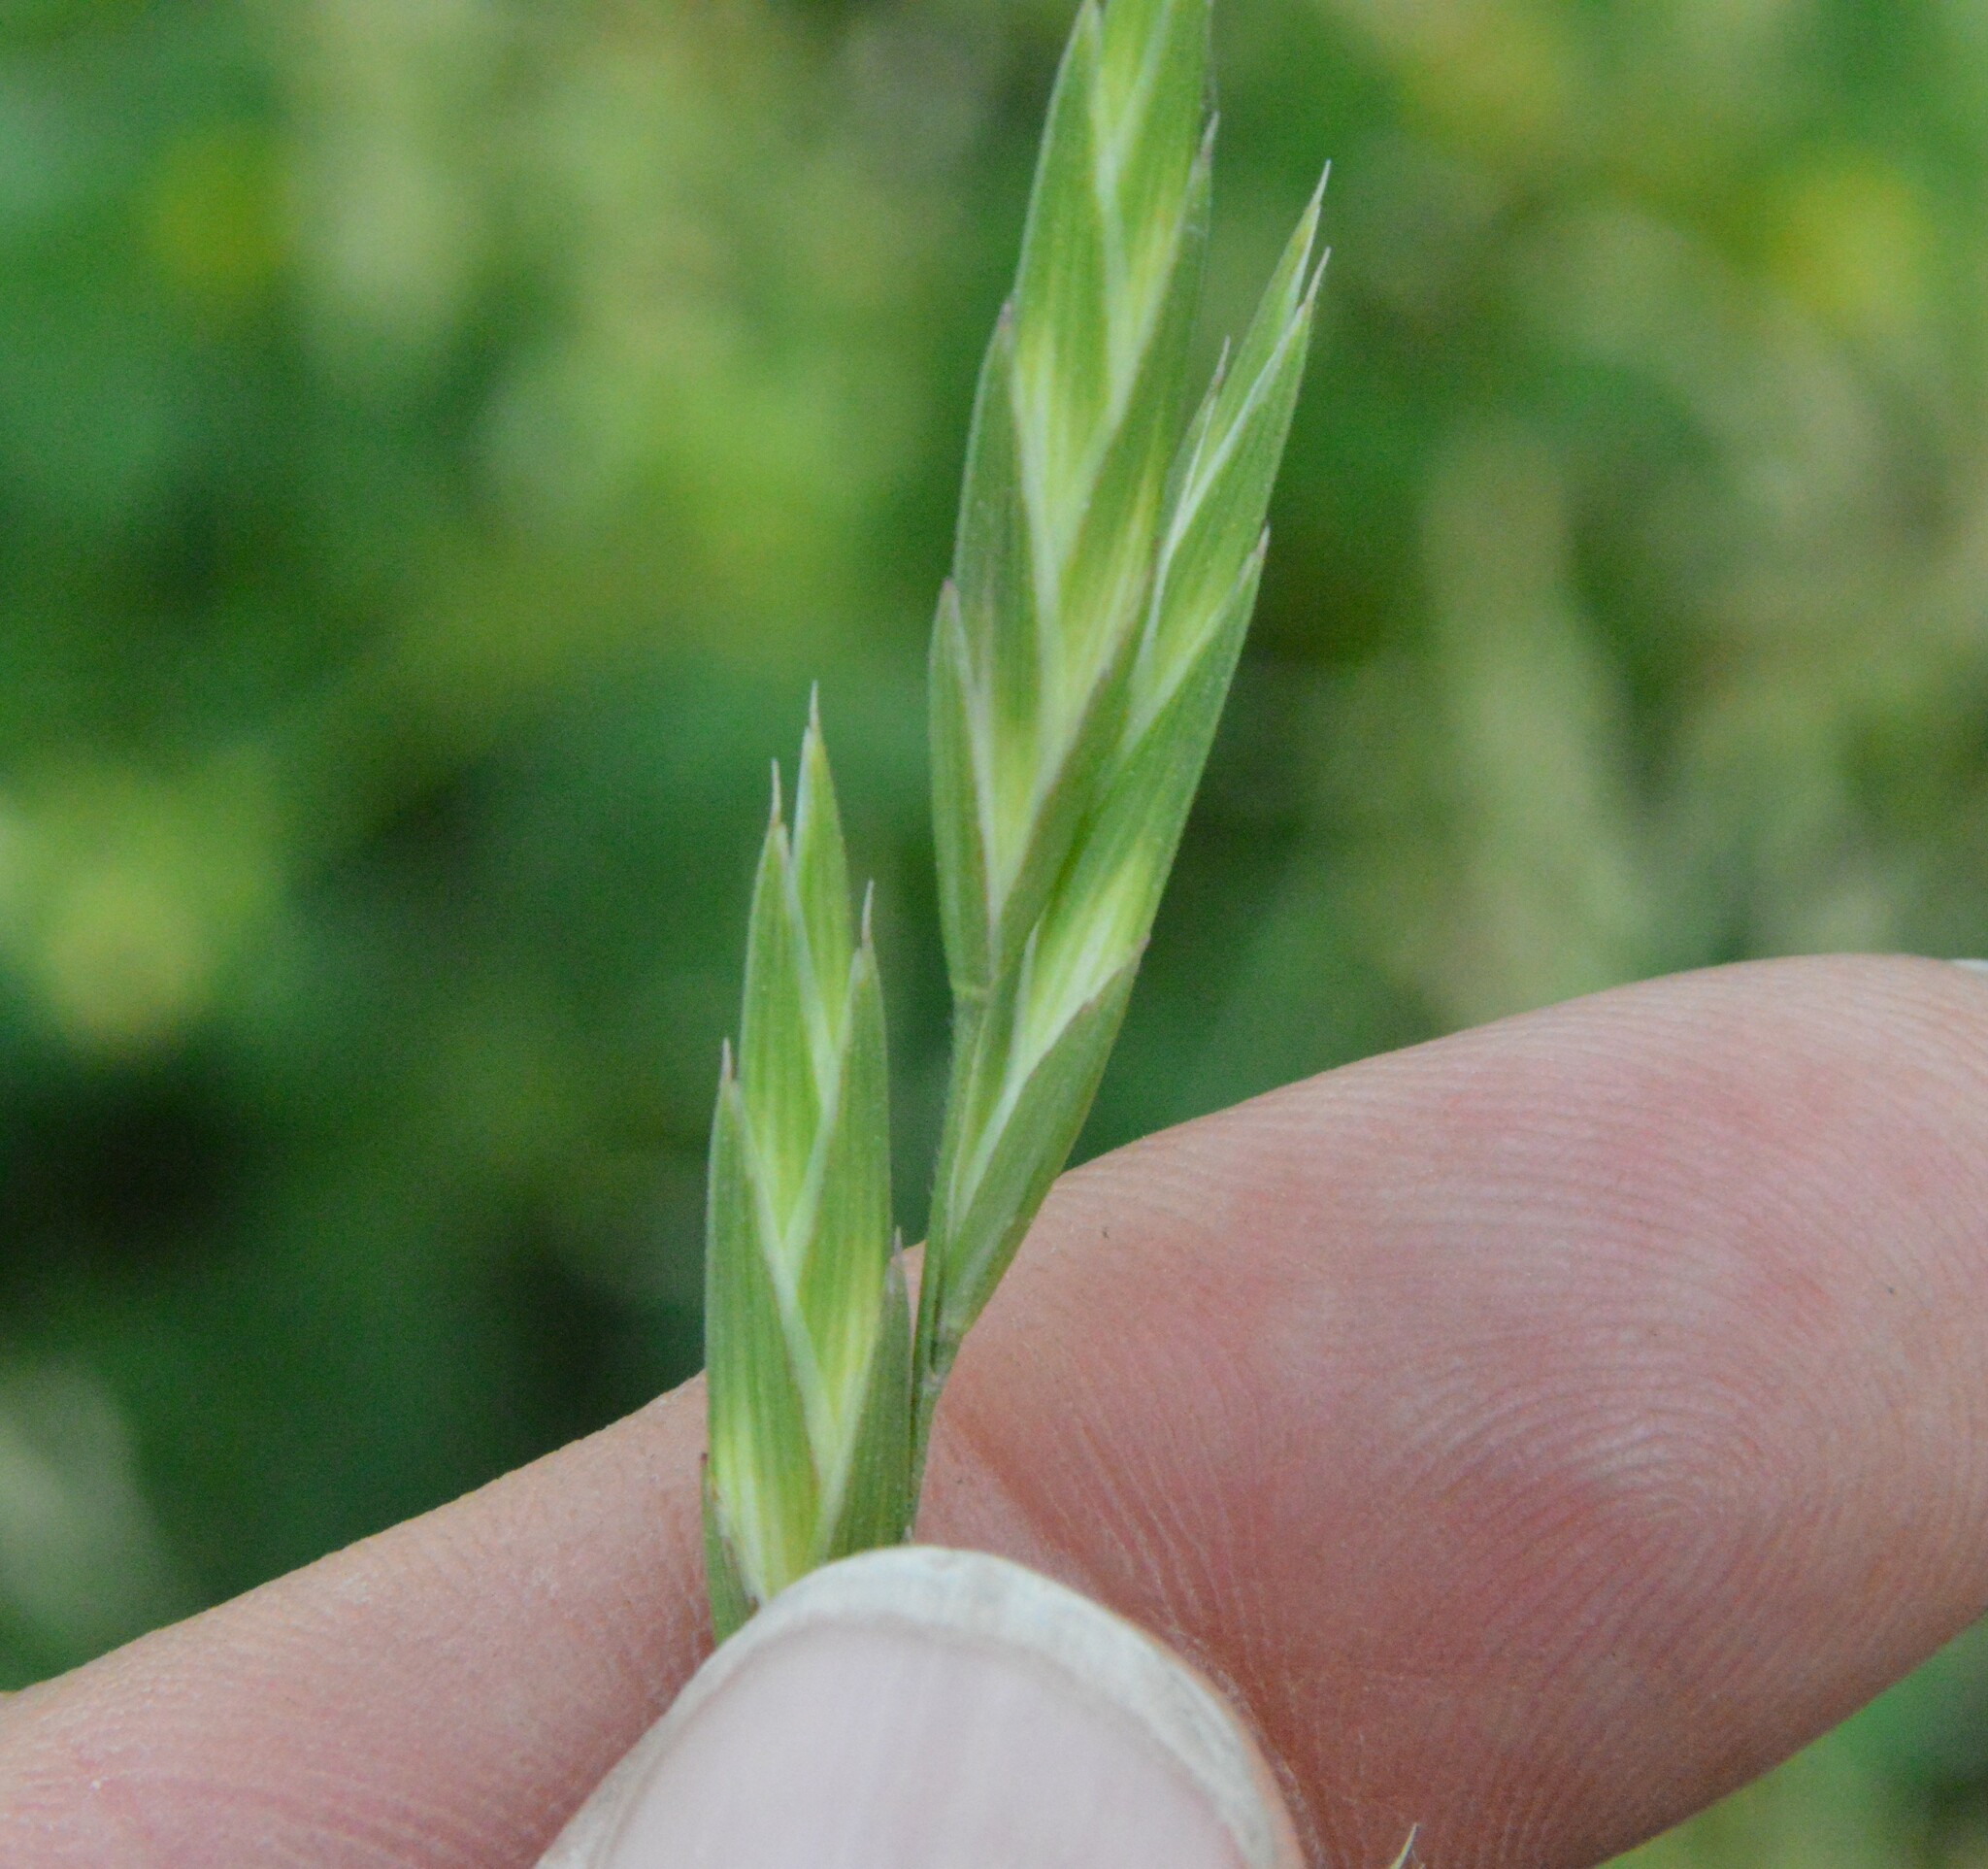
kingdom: Plantae
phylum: Tracheophyta
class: Liliopsida
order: Poales
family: Poaceae
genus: Bromus
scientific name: Bromus catharticus
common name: Rescuegrass
